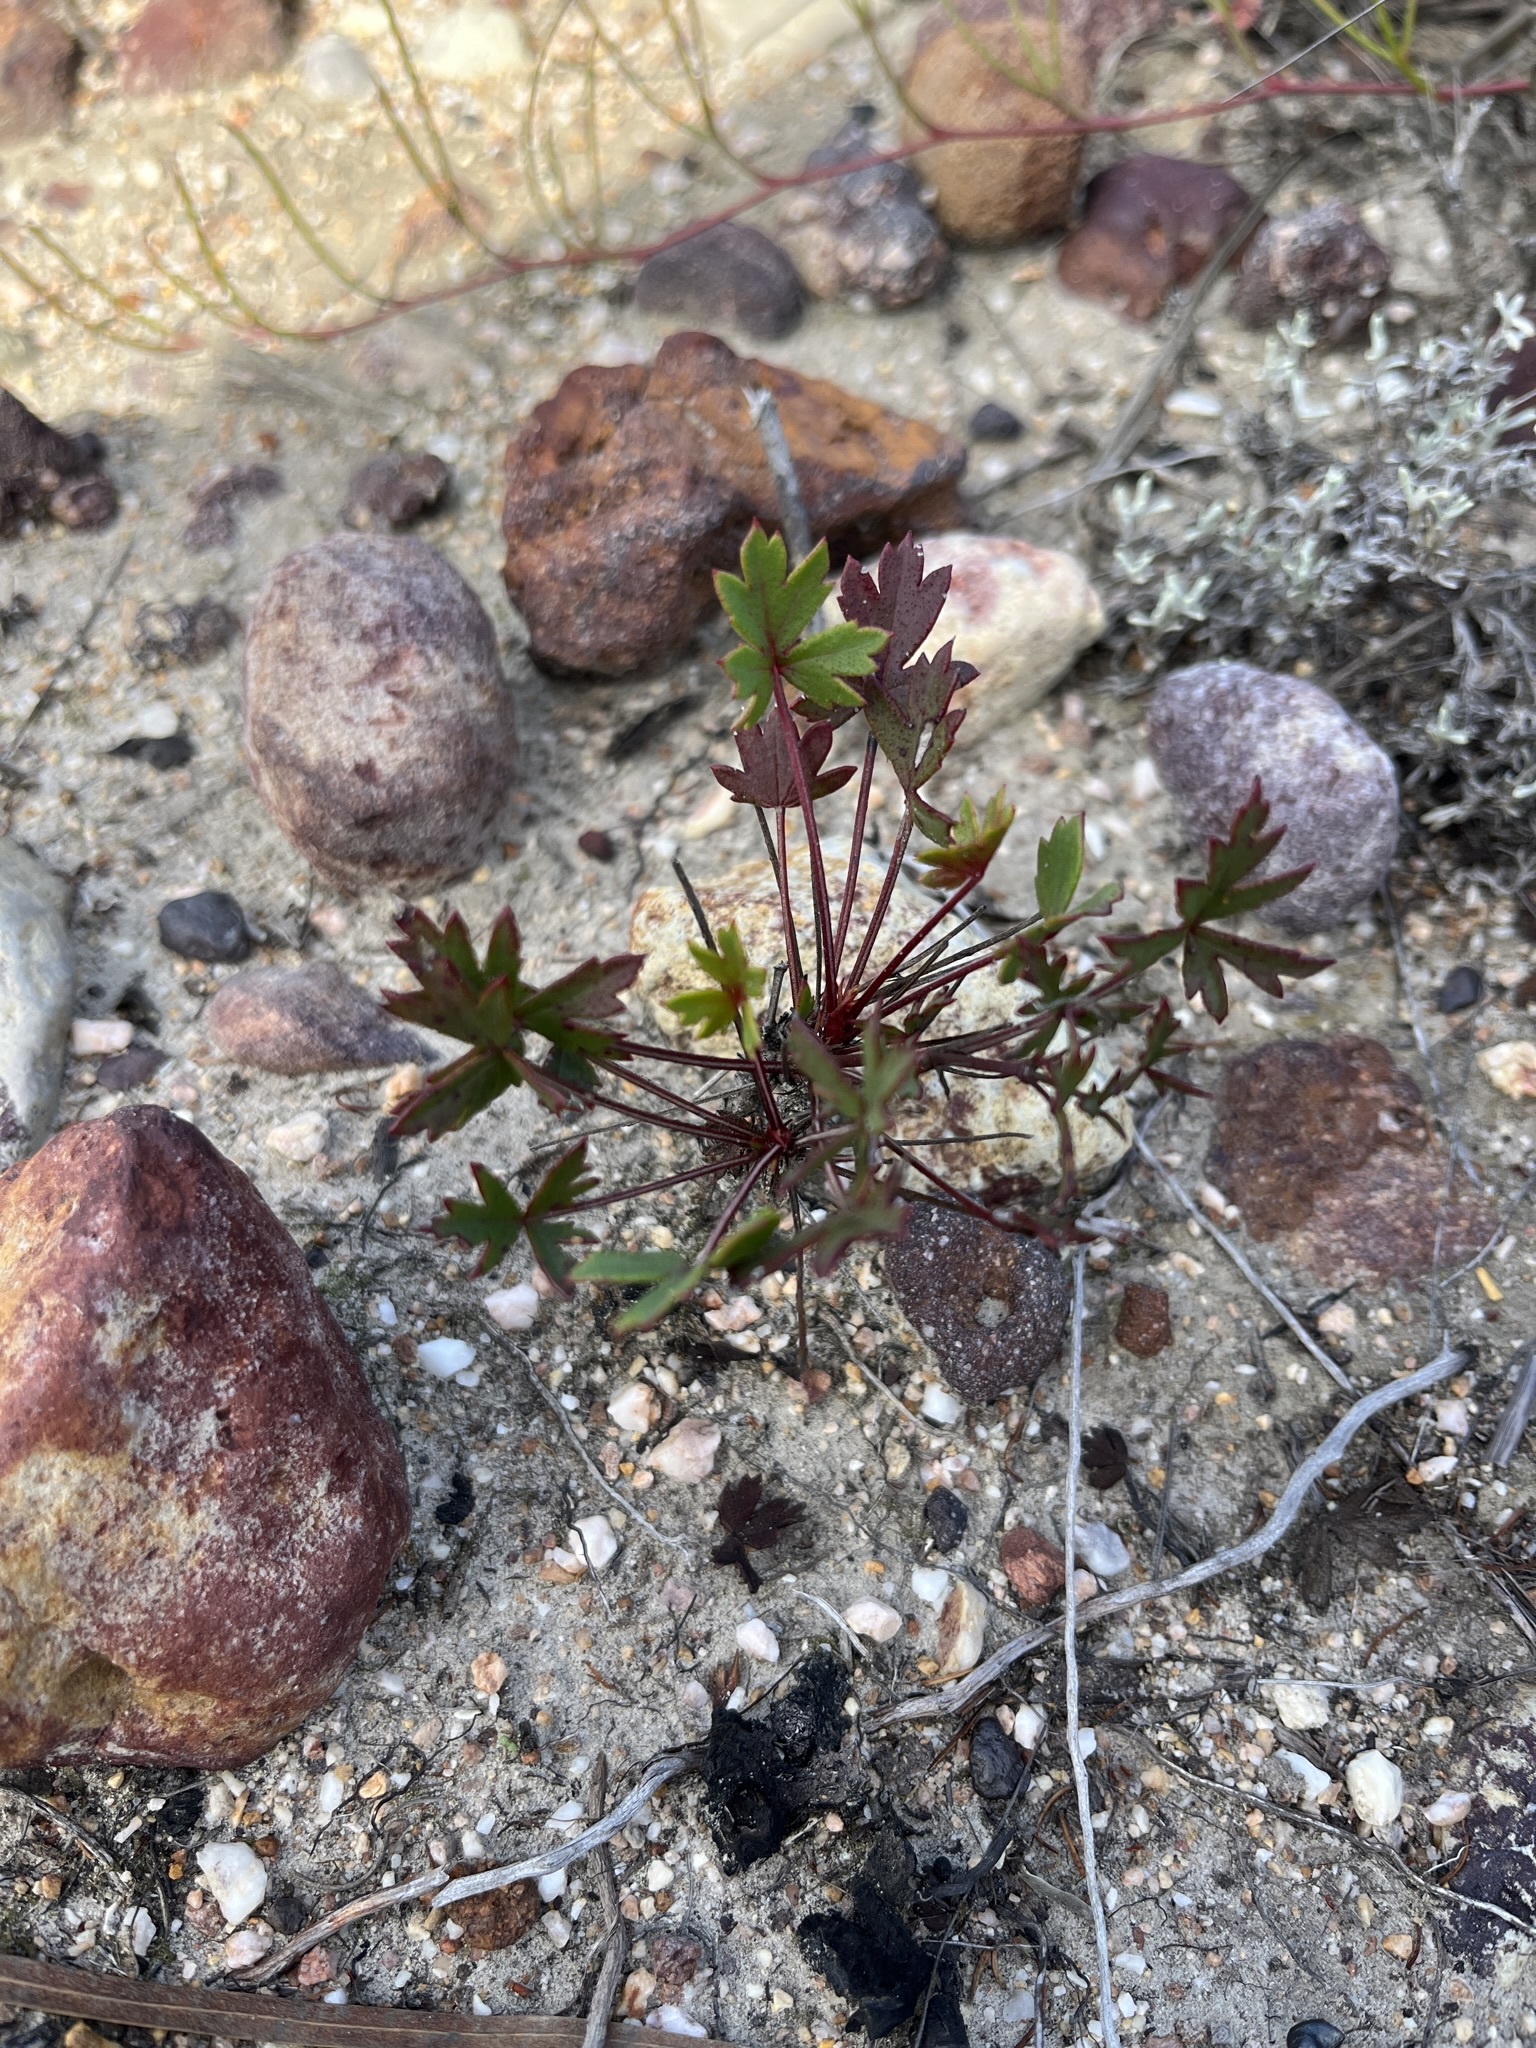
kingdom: Plantae
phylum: Tracheophyta
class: Magnoliopsida
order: Geraniales
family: Geraniaceae
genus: Pelargonium
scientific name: Pelargonium incarnatum
